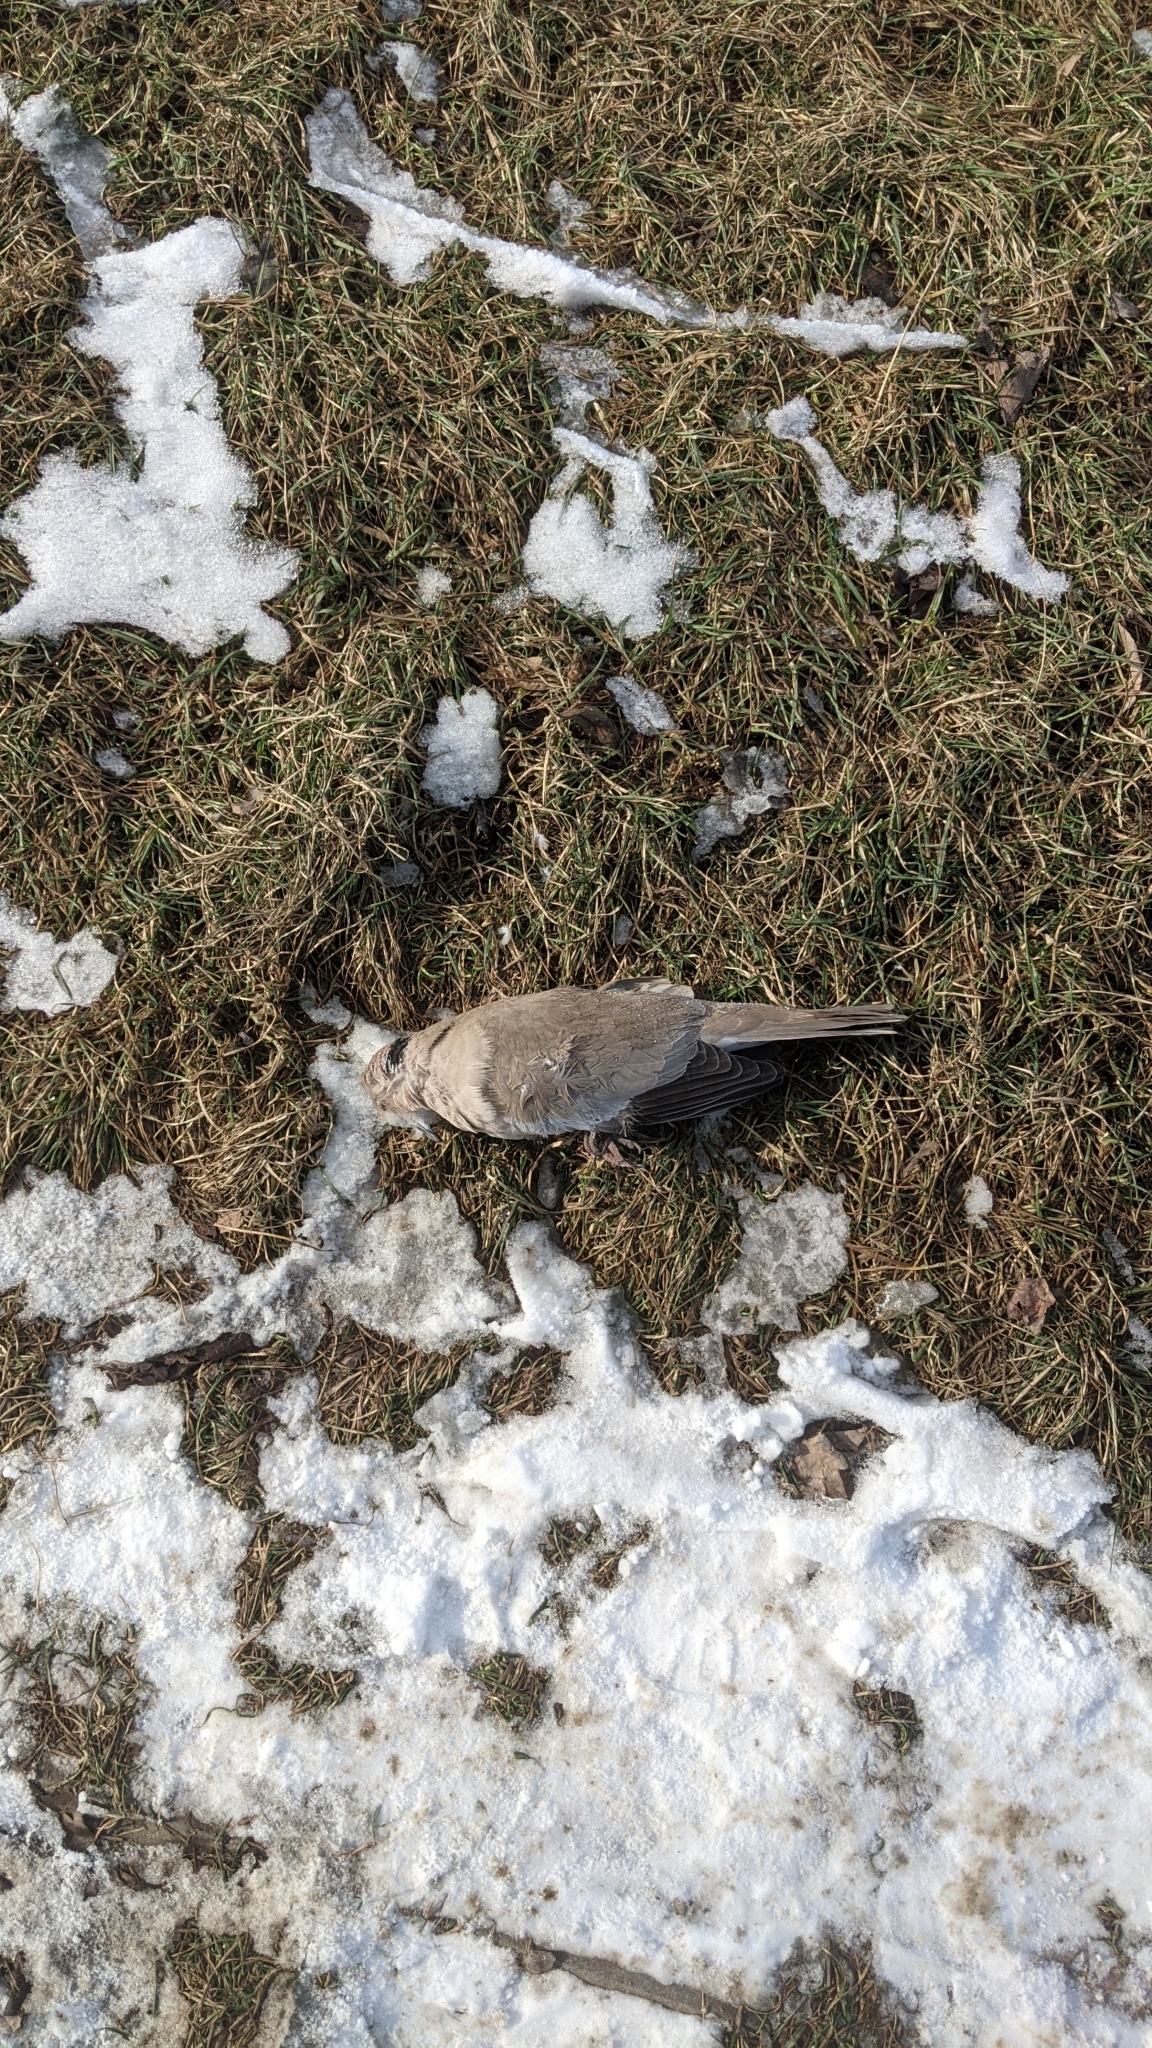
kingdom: Animalia
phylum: Chordata
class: Aves
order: Columbiformes
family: Columbidae
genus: Streptopelia
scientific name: Streptopelia decaocto
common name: Eurasian collared dove
